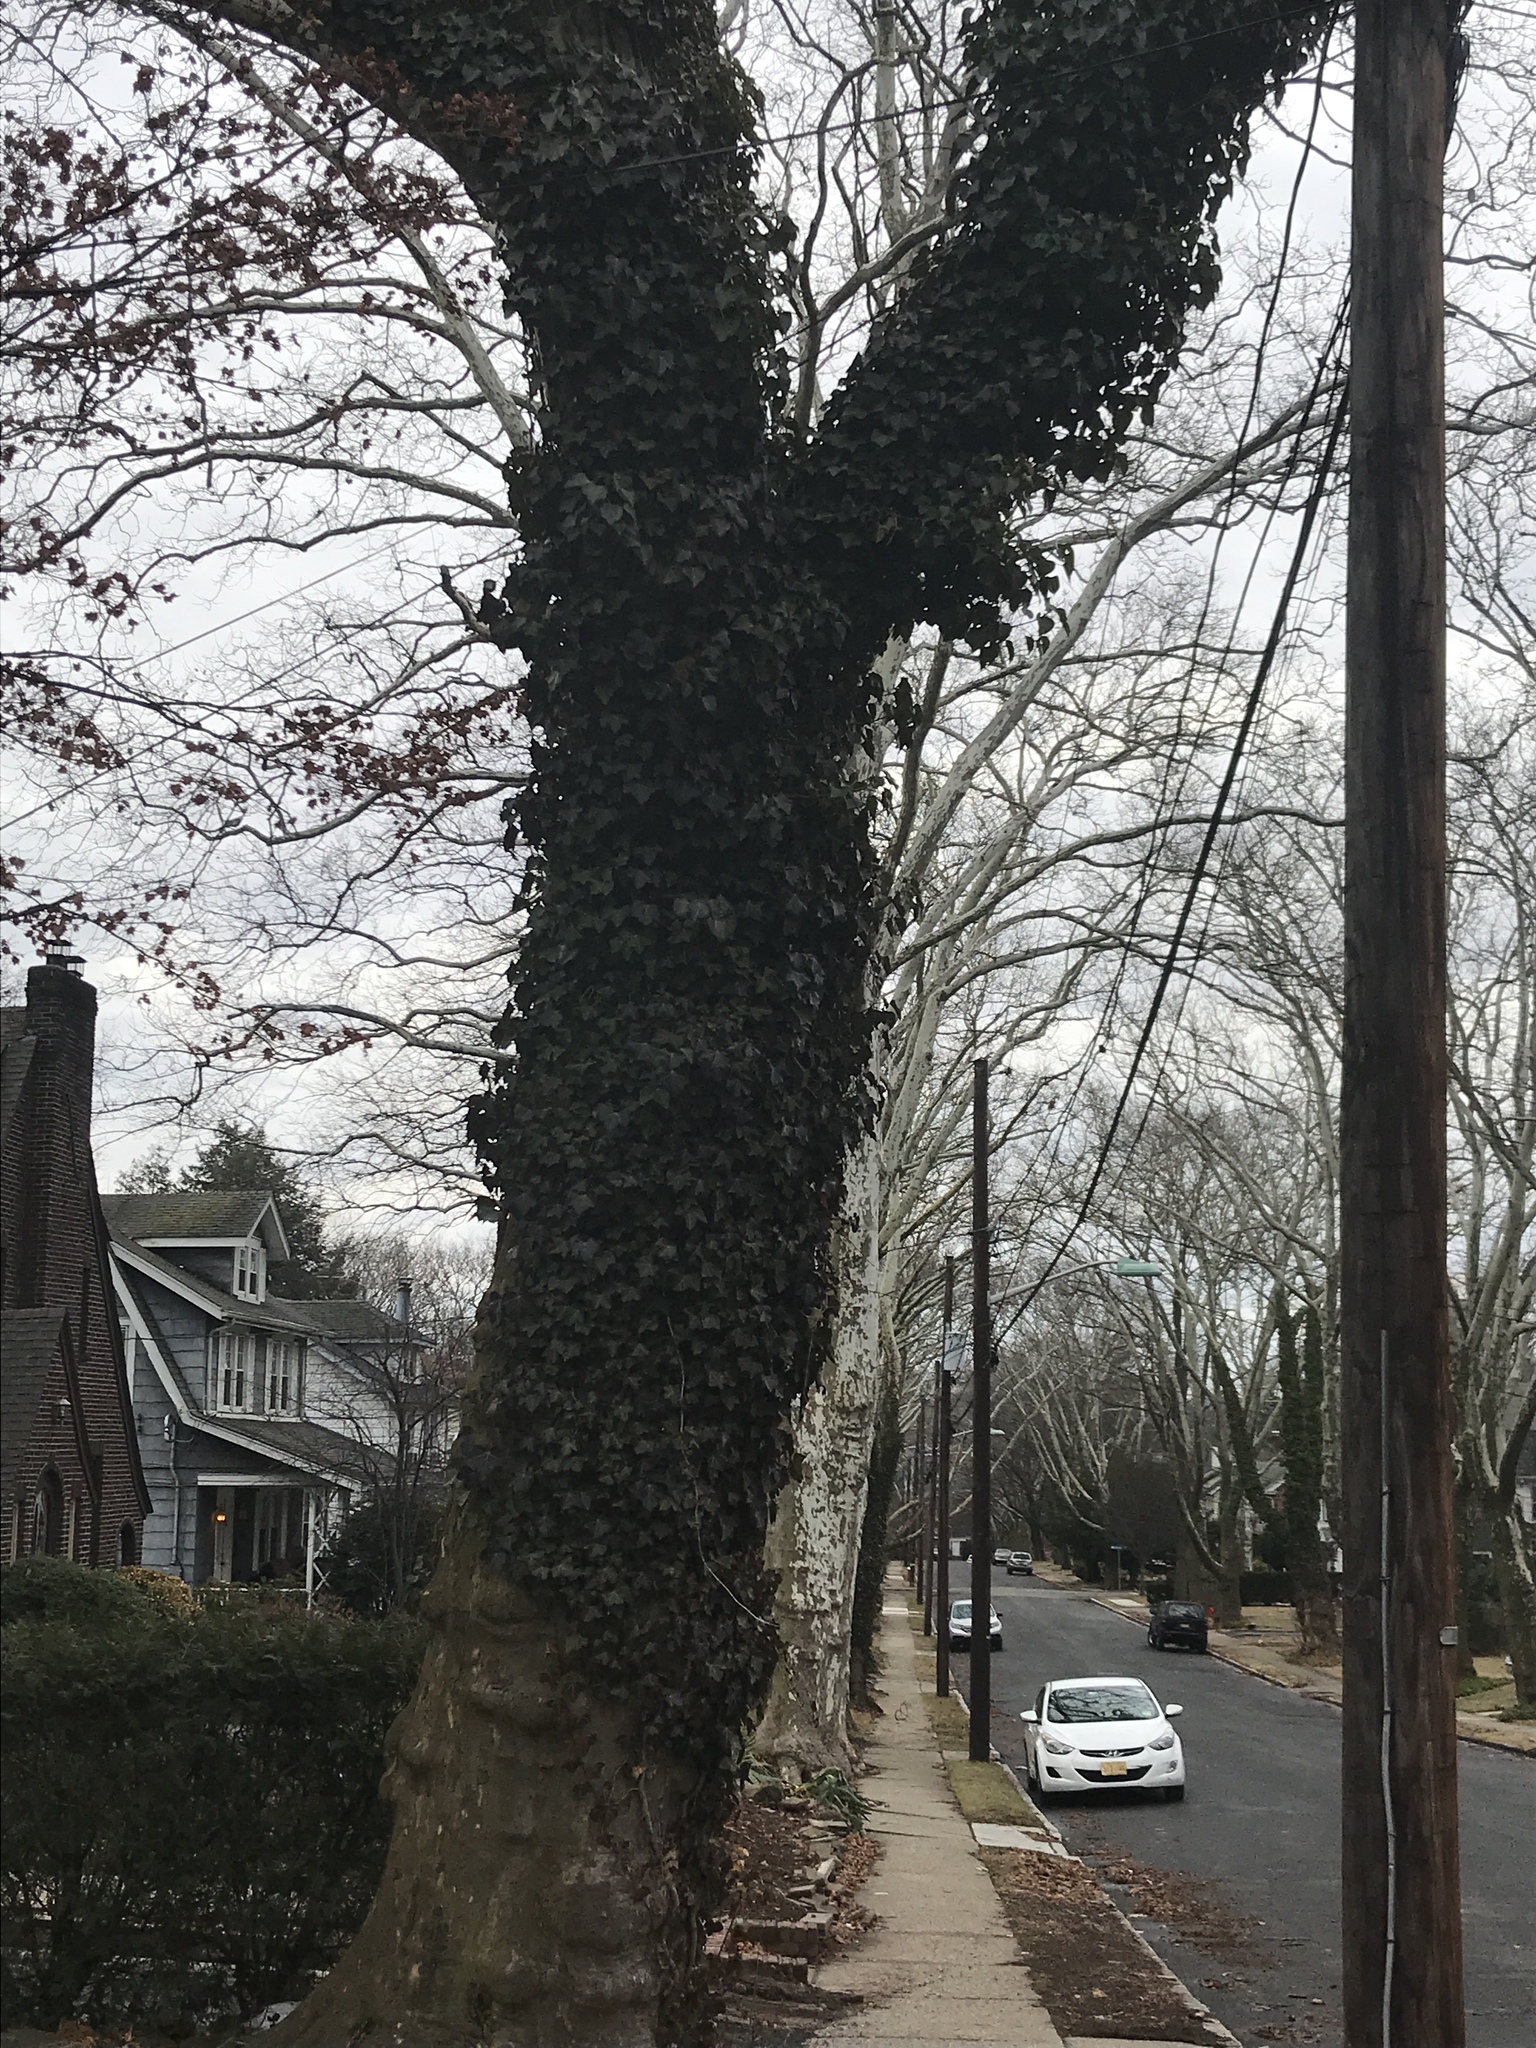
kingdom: Plantae
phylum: Tracheophyta
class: Magnoliopsida
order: Apiales
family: Araliaceae
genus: Hedera
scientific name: Hedera helix
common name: Ivy
